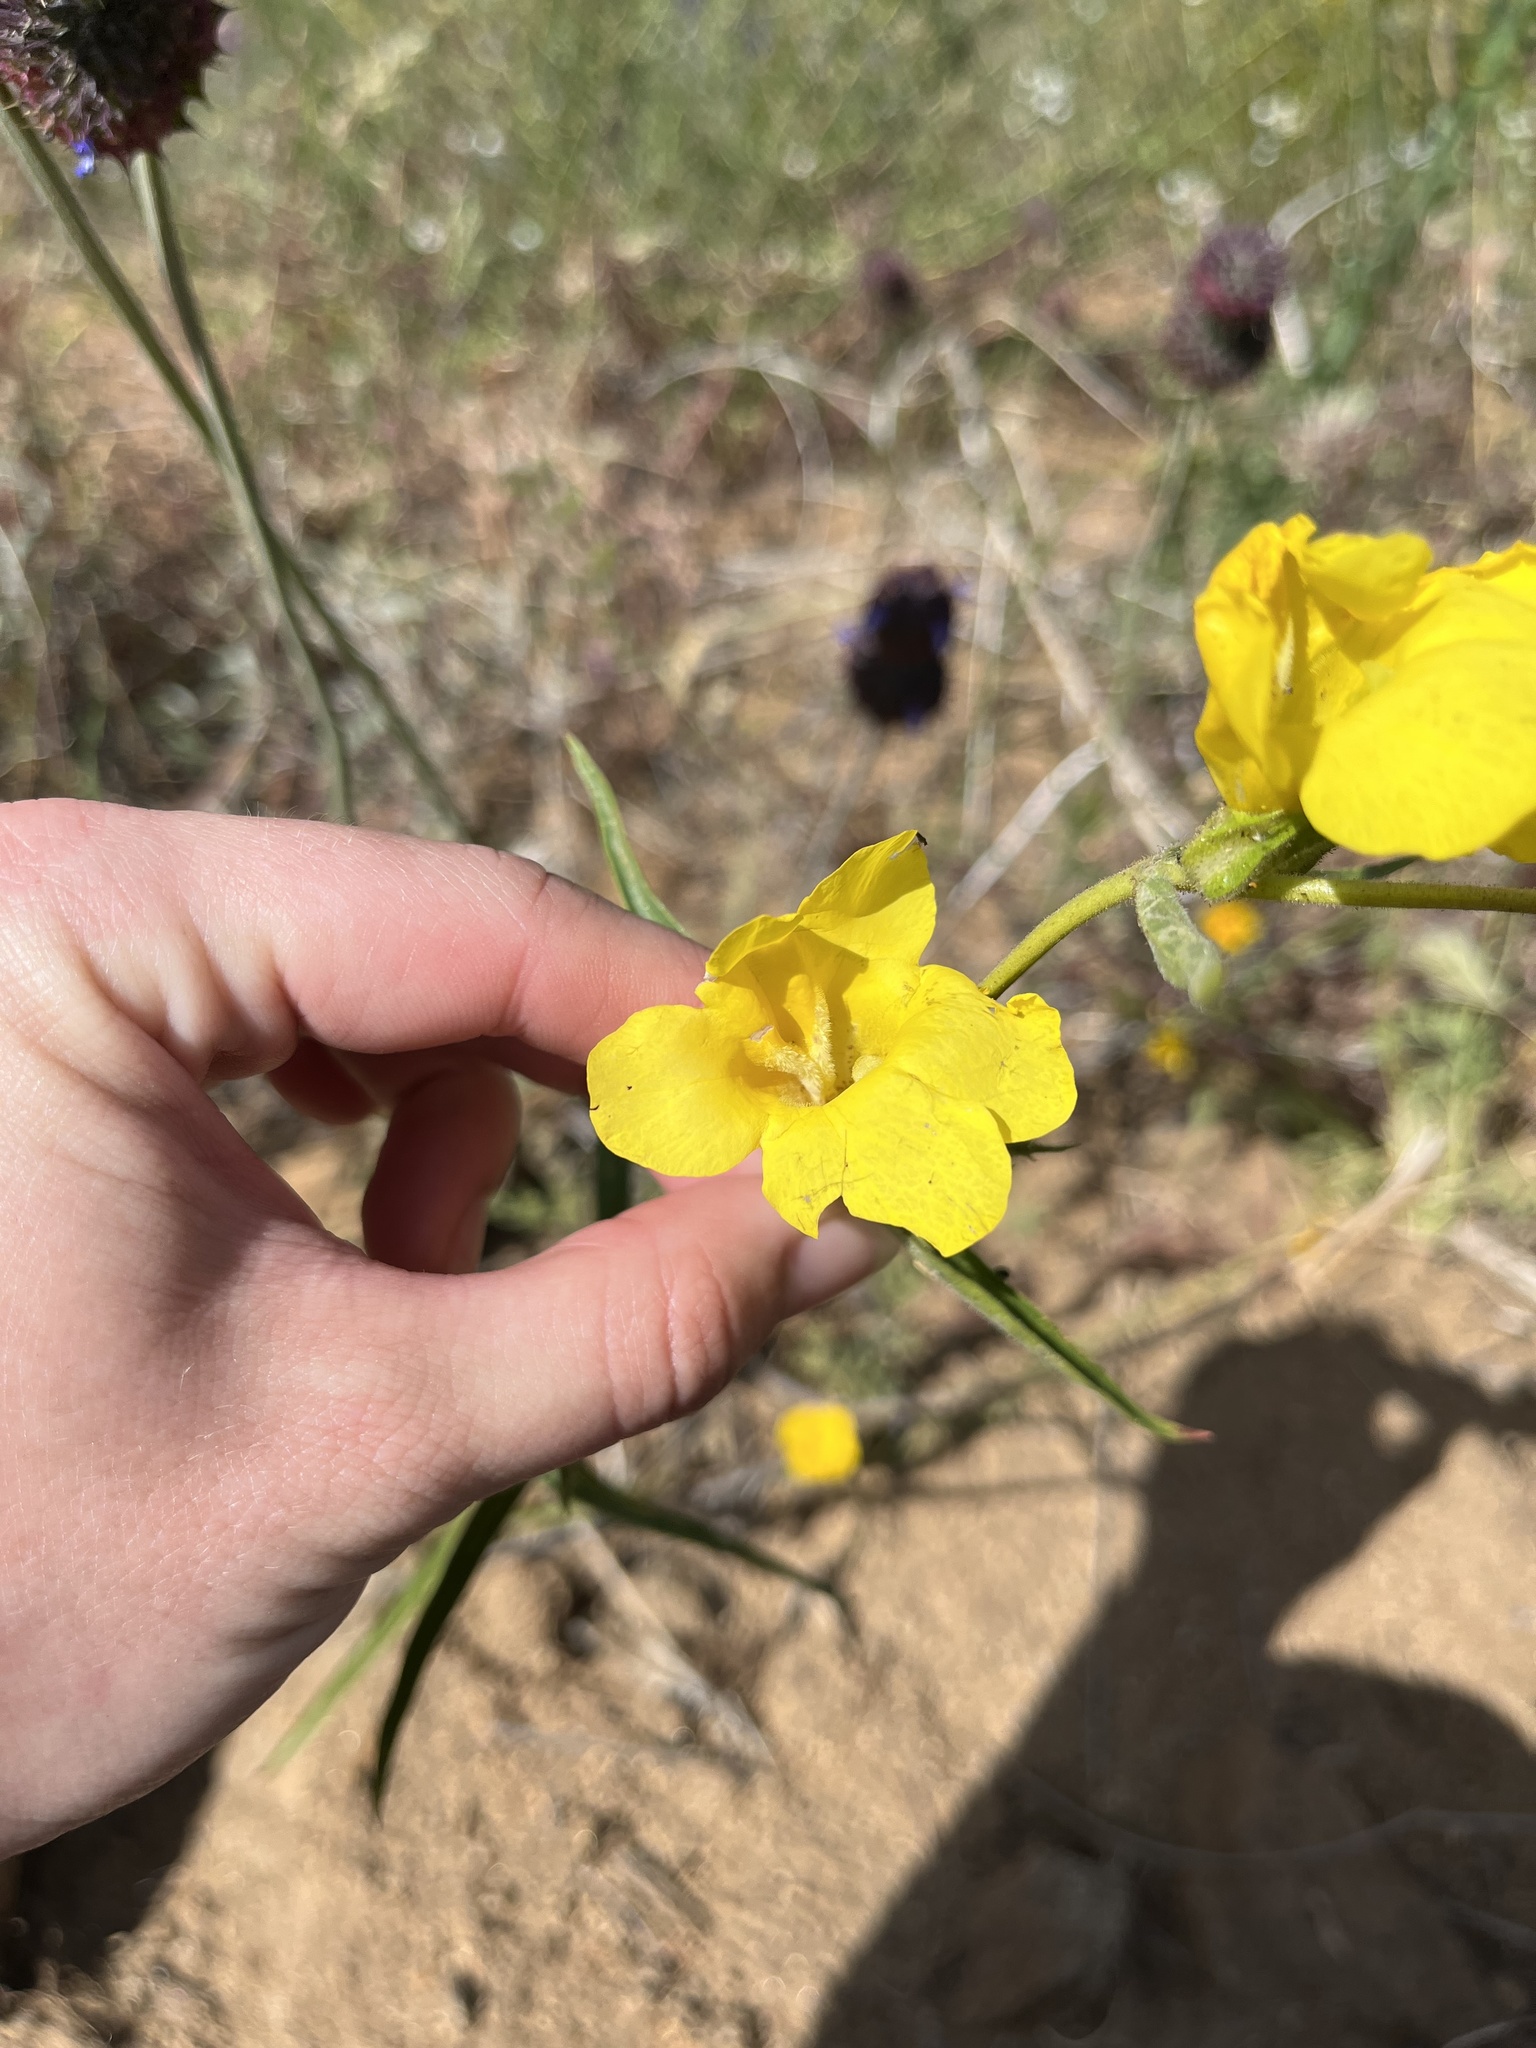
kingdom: Plantae
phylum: Tracheophyta
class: Magnoliopsida
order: Lamiales
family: Phrymaceae
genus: Diplacus
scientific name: Diplacus brevipes
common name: Wide-throat yellow monkey-flower
